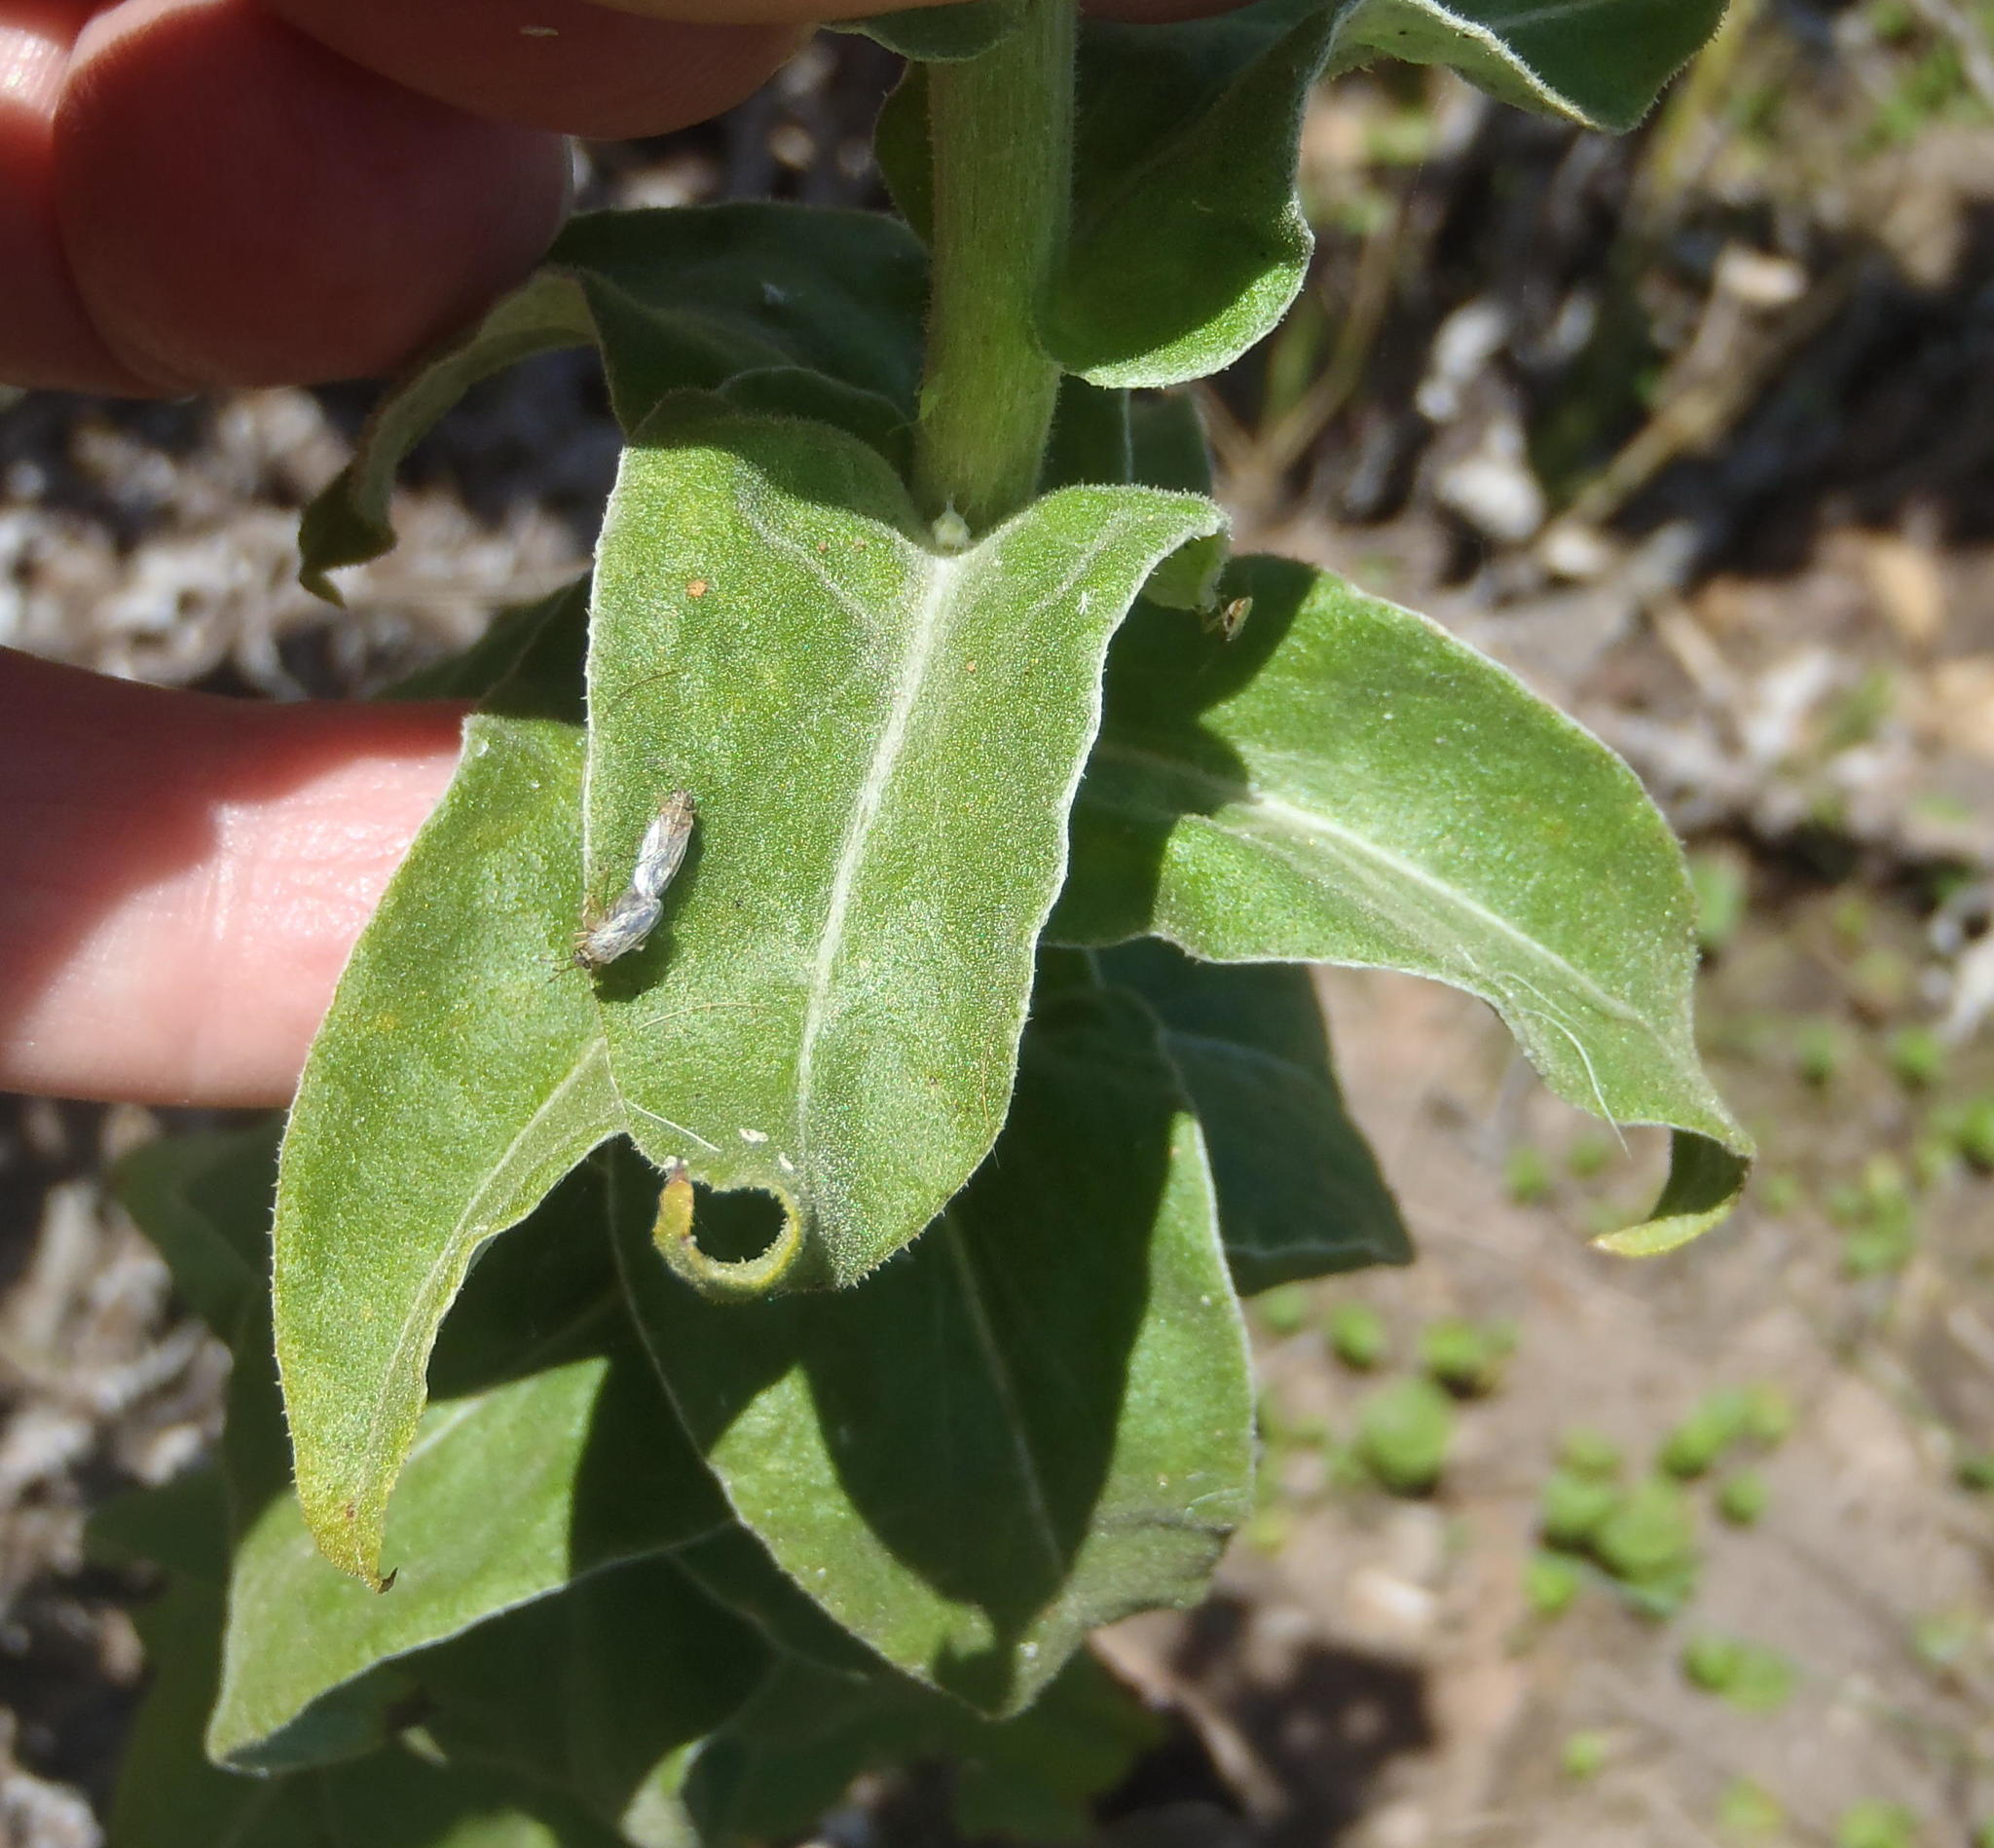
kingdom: Plantae
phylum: Tracheophyta
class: Magnoliopsida
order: Asterales
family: Asteraceae
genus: Helichrysum
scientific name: Helichrysum foetidum
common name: Stinking everlasting
